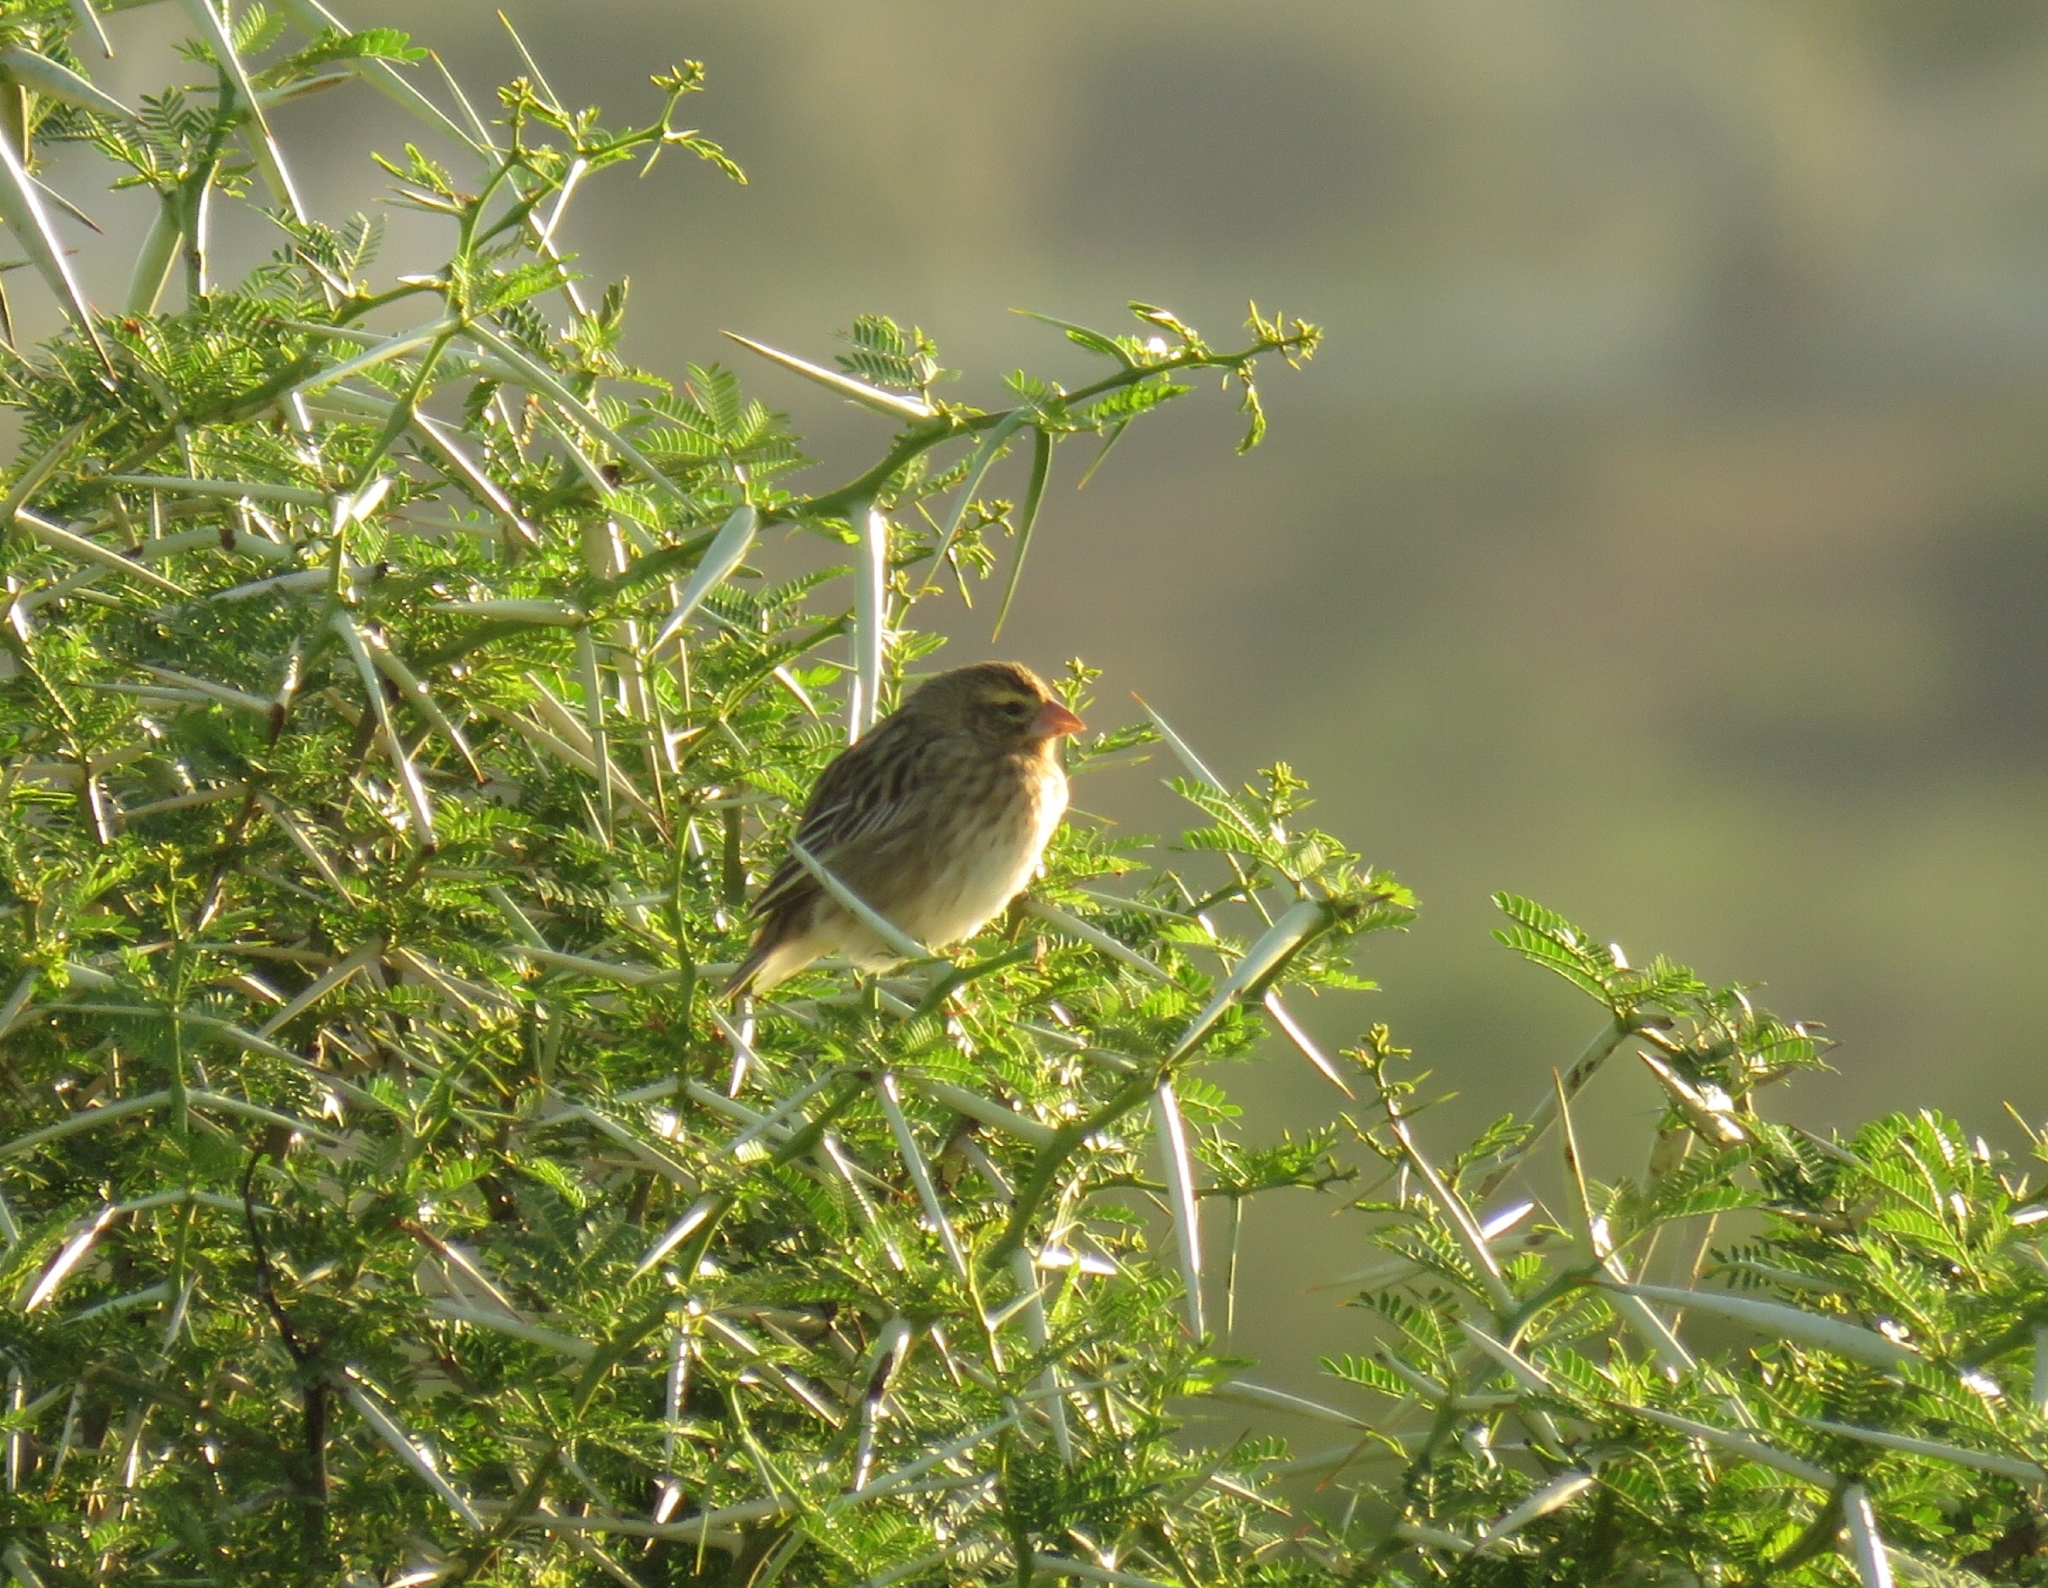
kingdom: Animalia
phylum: Chordata
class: Aves
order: Passeriformes
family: Ploceidae
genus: Euplectes
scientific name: Euplectes orix
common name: Southern red bishop
